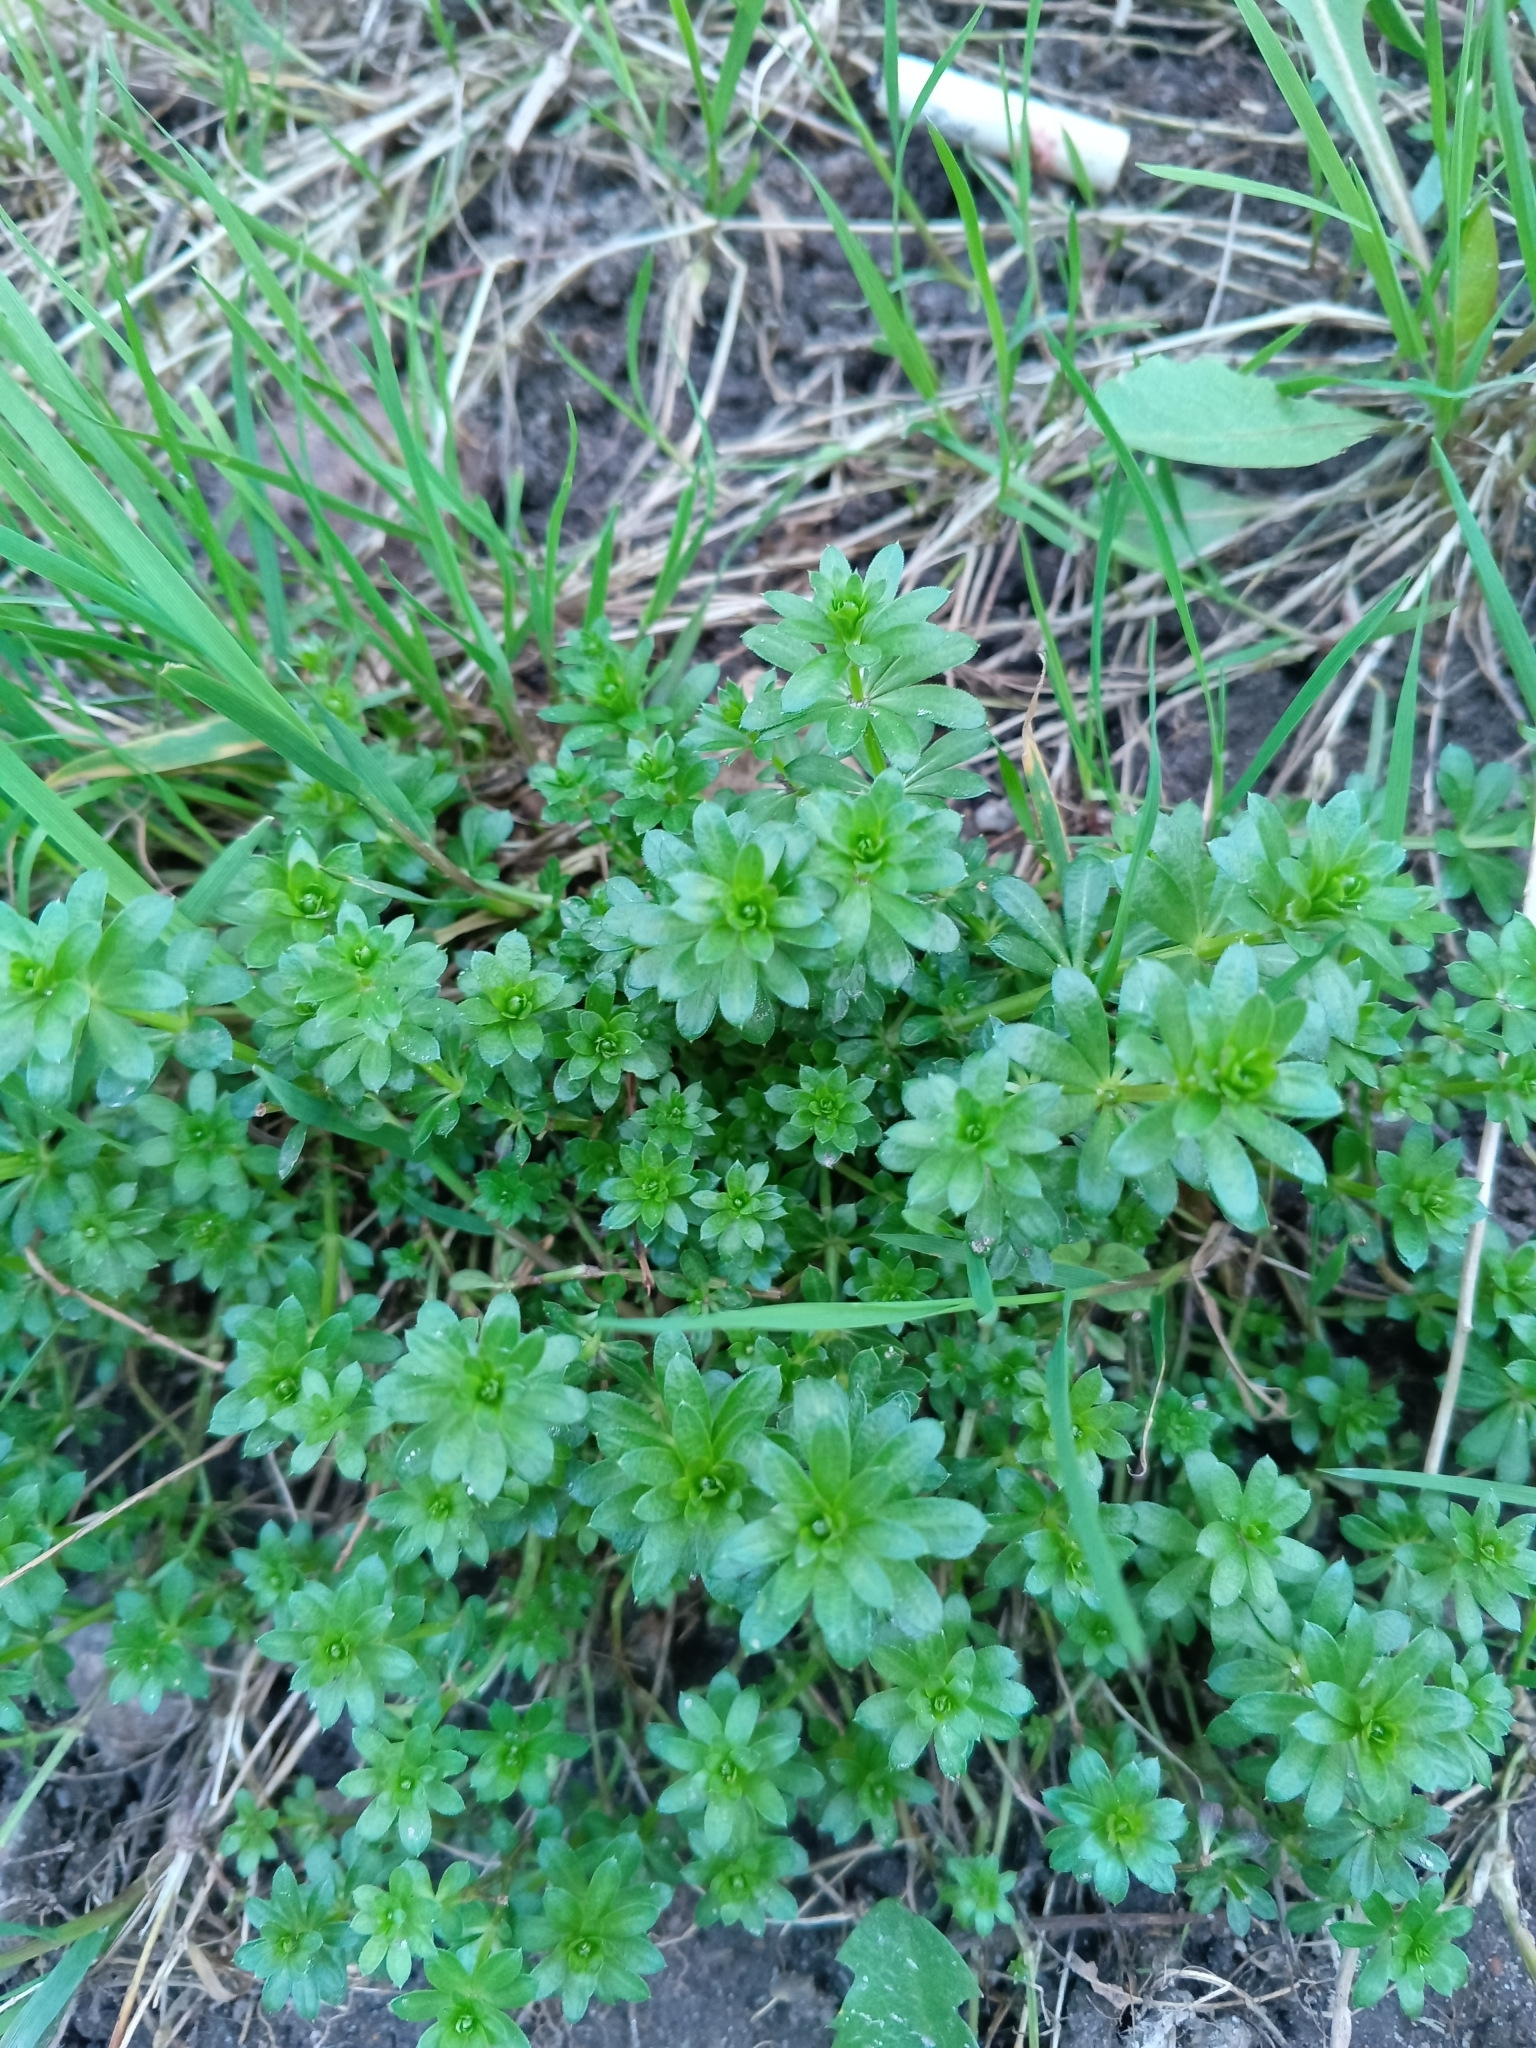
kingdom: Plantae
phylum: Tracheophyta
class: Magnoliopsida
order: Gentianales
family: Rubiaceae
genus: Galium
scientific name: Galium mollugo
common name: Hedge bedstraw
